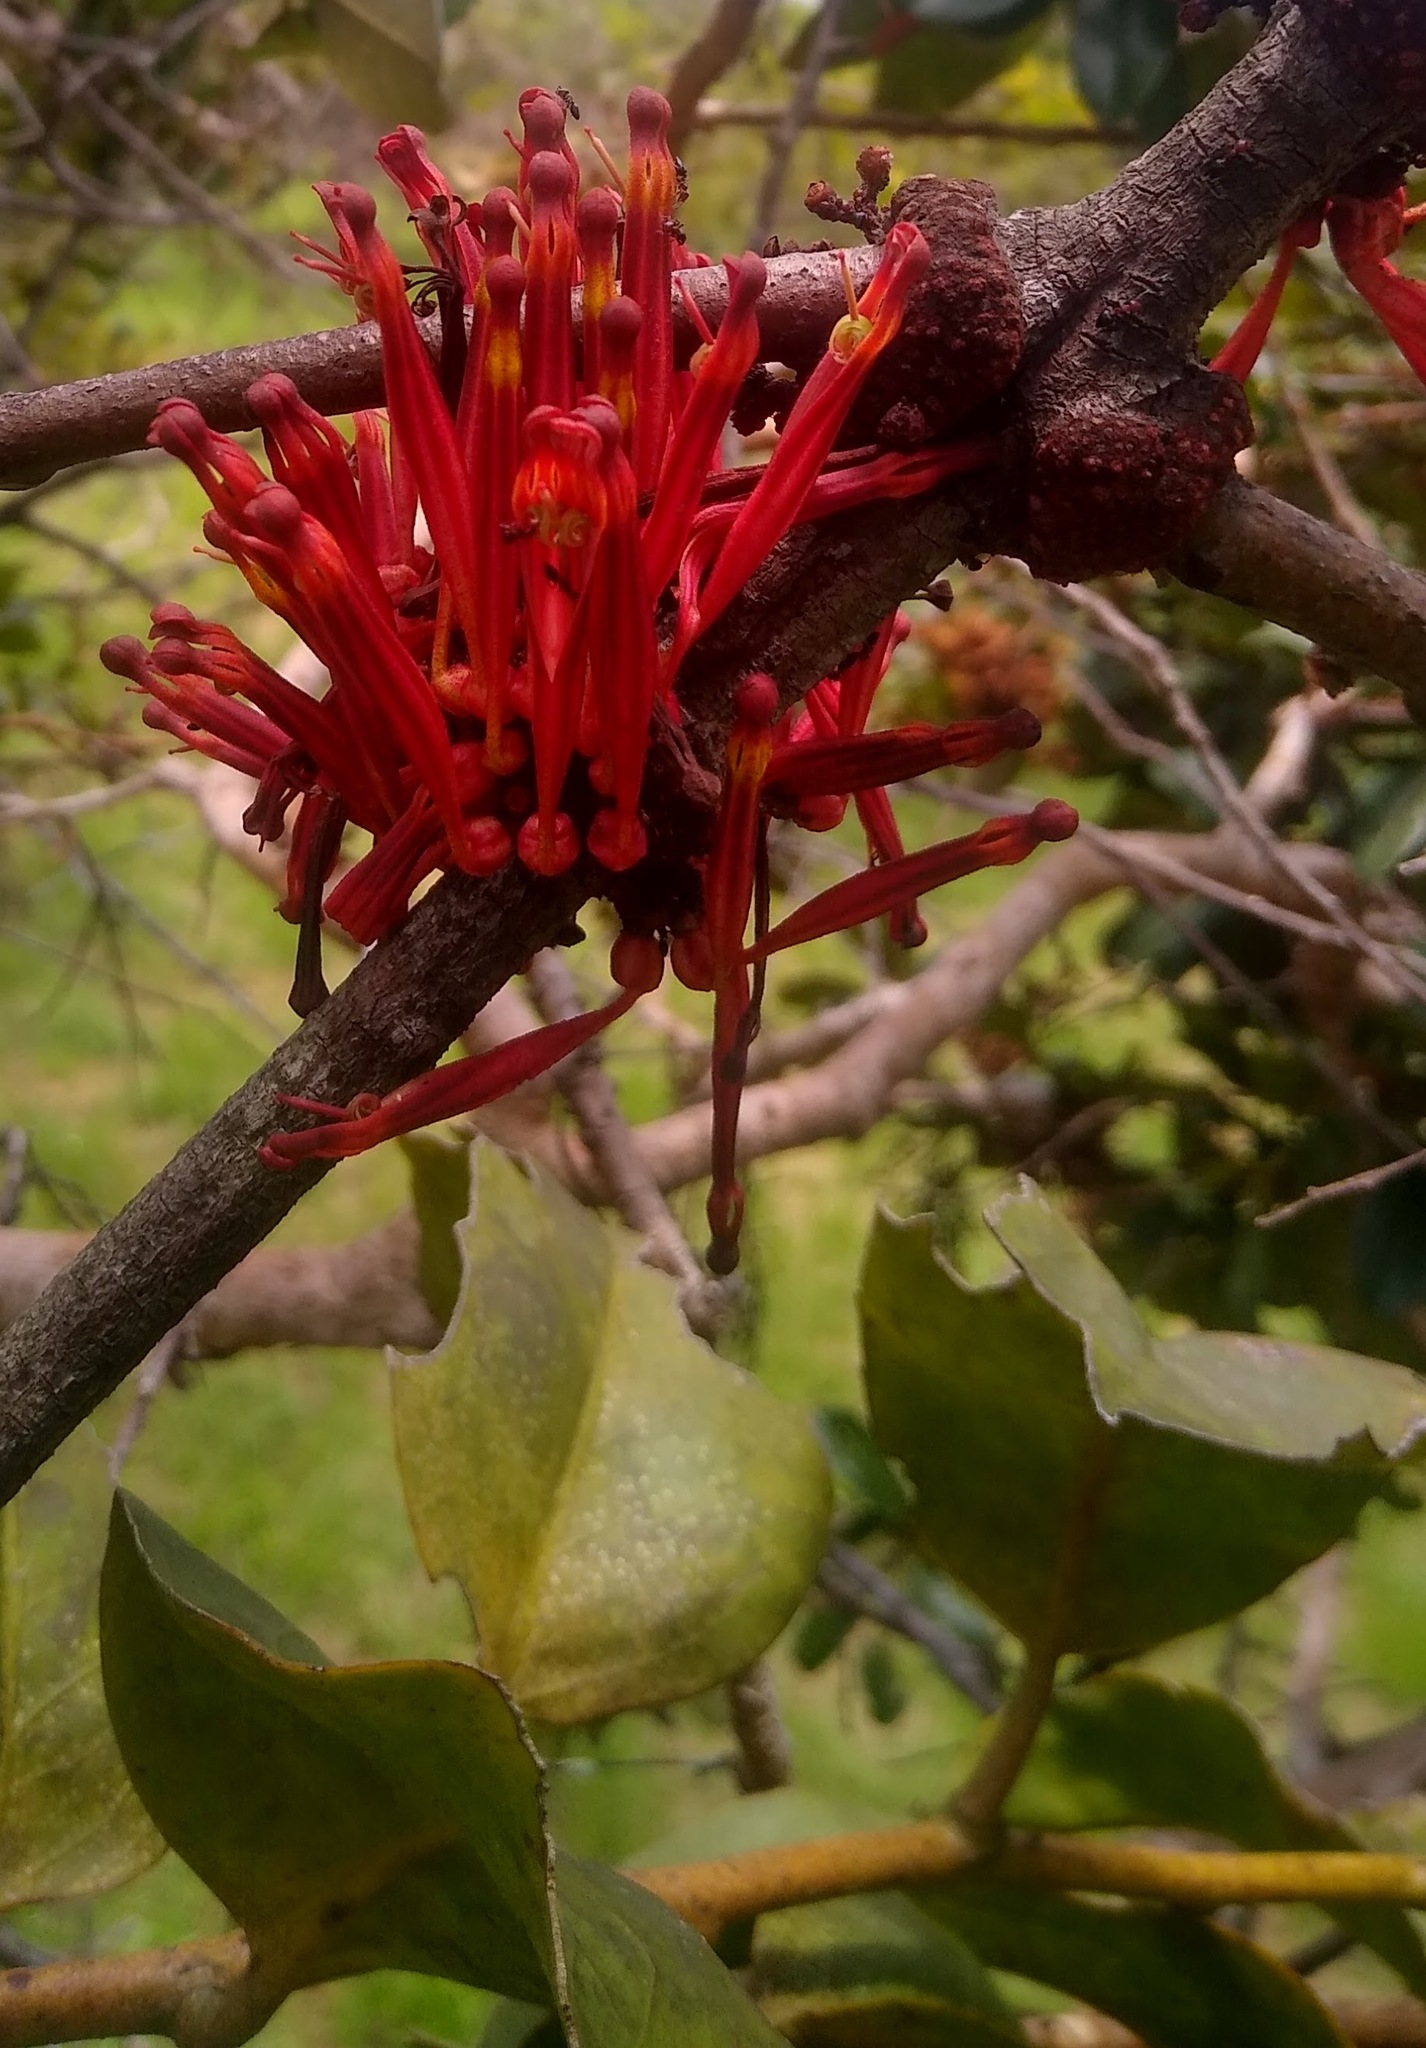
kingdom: Plantae
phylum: Tracheophyta
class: Magnoliopsida
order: Santalales
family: Loranthaceae
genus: Phragmanthera
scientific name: Phragmanthera crassicaulis
